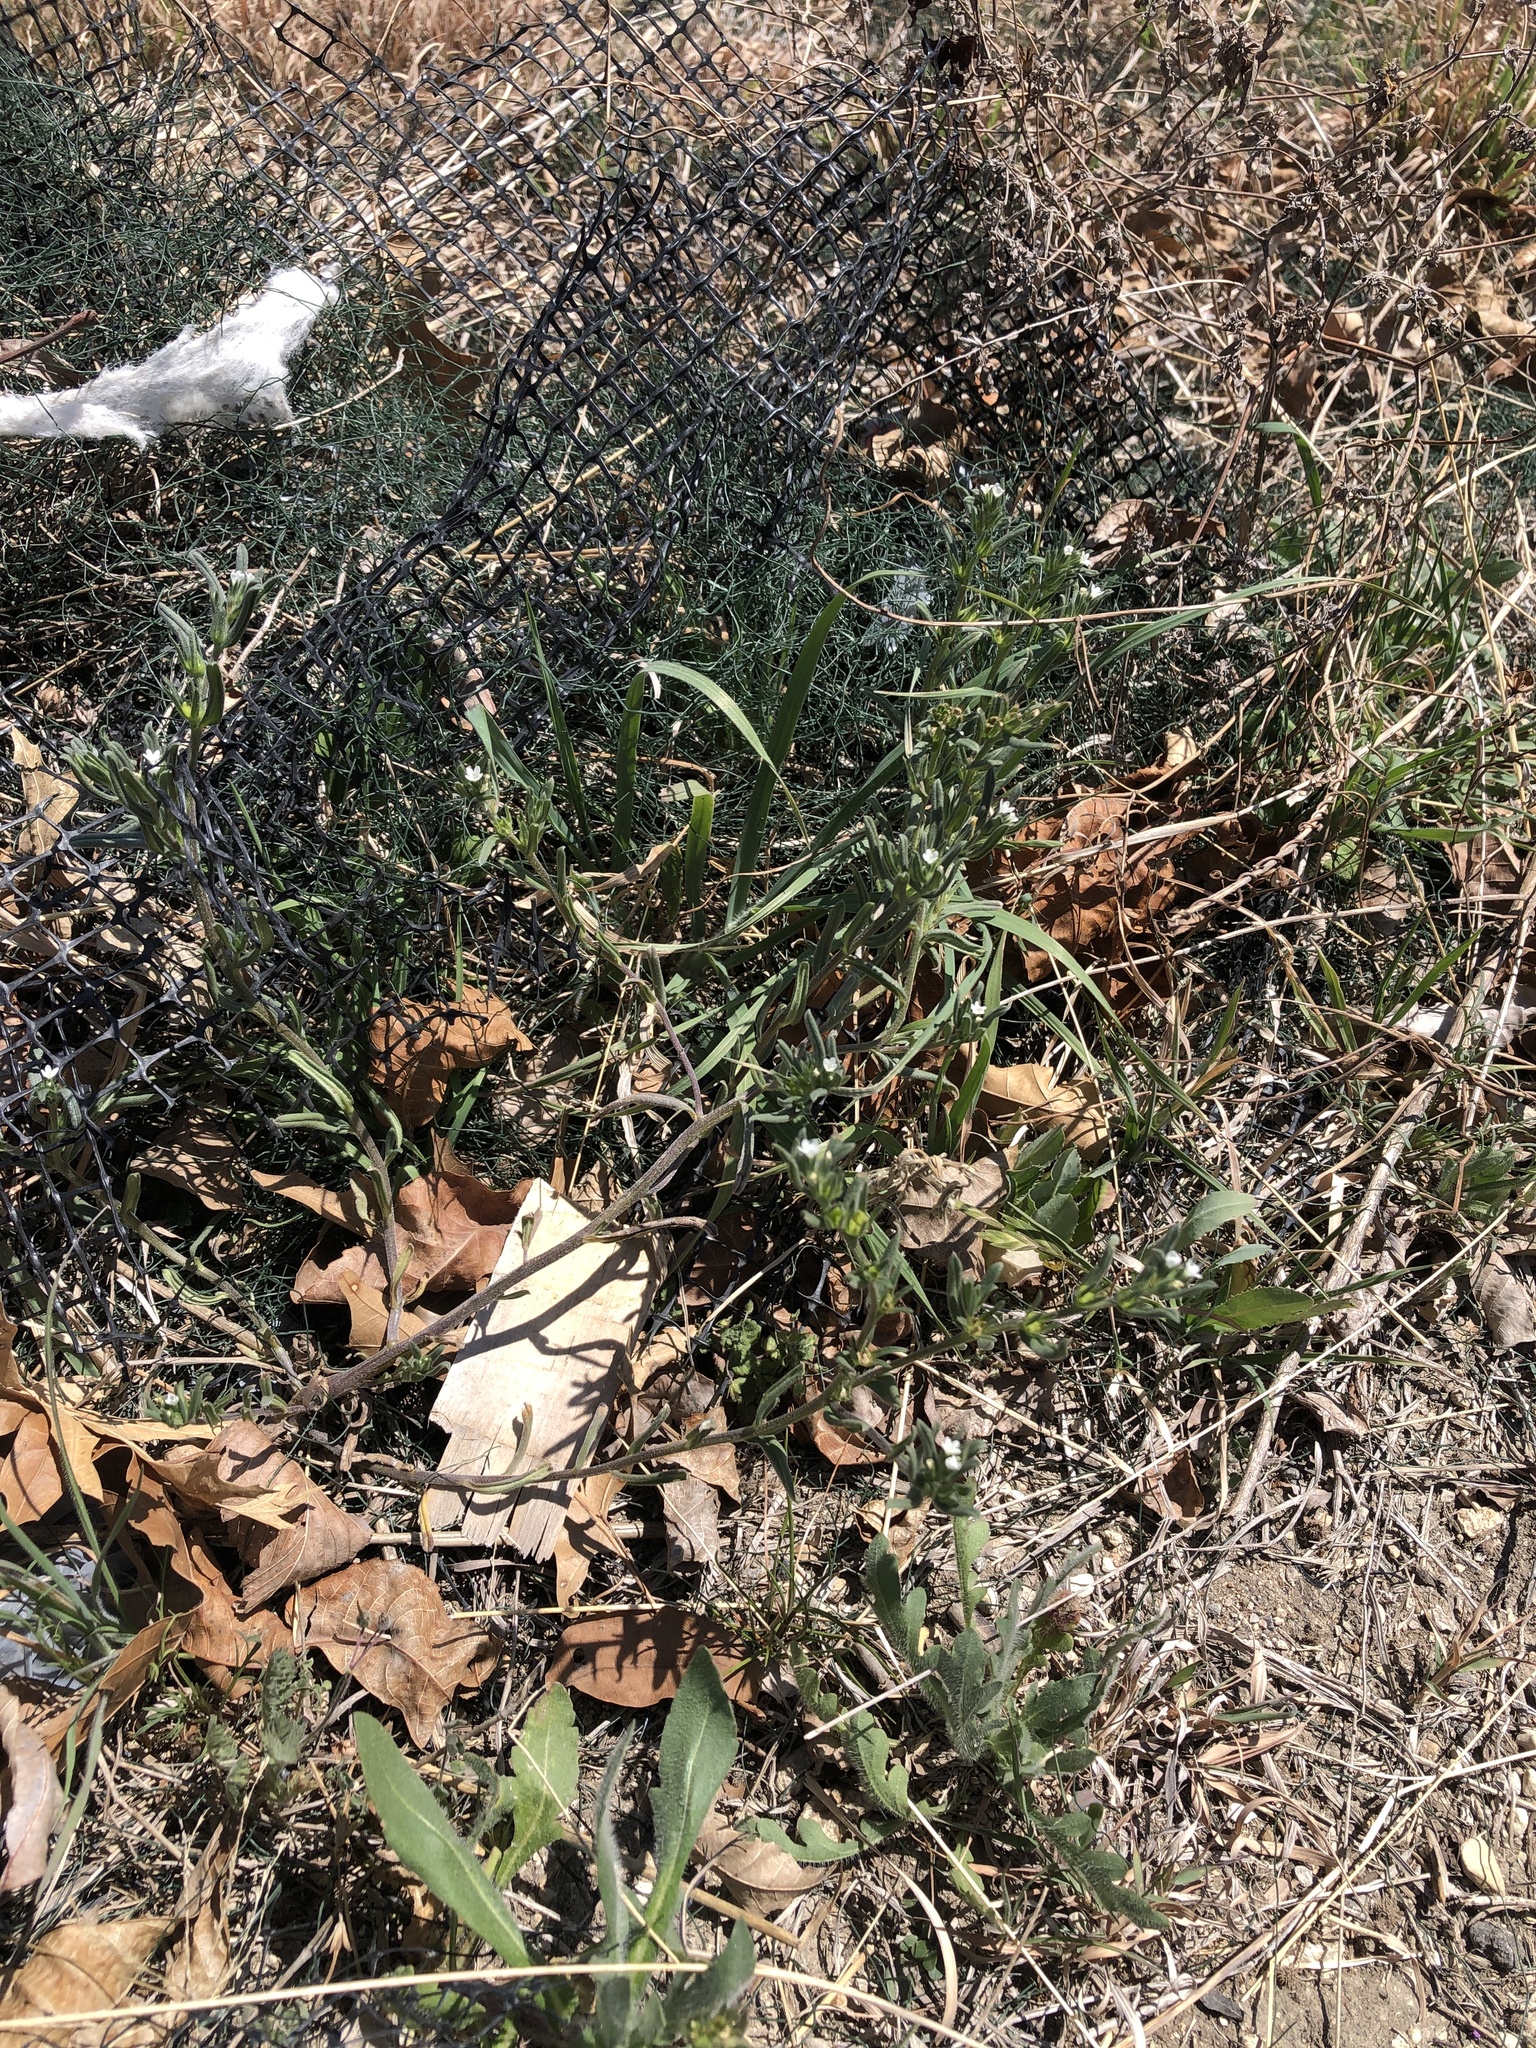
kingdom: Plantae
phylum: Tracheophyta
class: Magnoliopsida
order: Boraginales
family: Boraginaceae
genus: Buglossoides
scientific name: Buglossoides arvensis
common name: Corn gromwell
